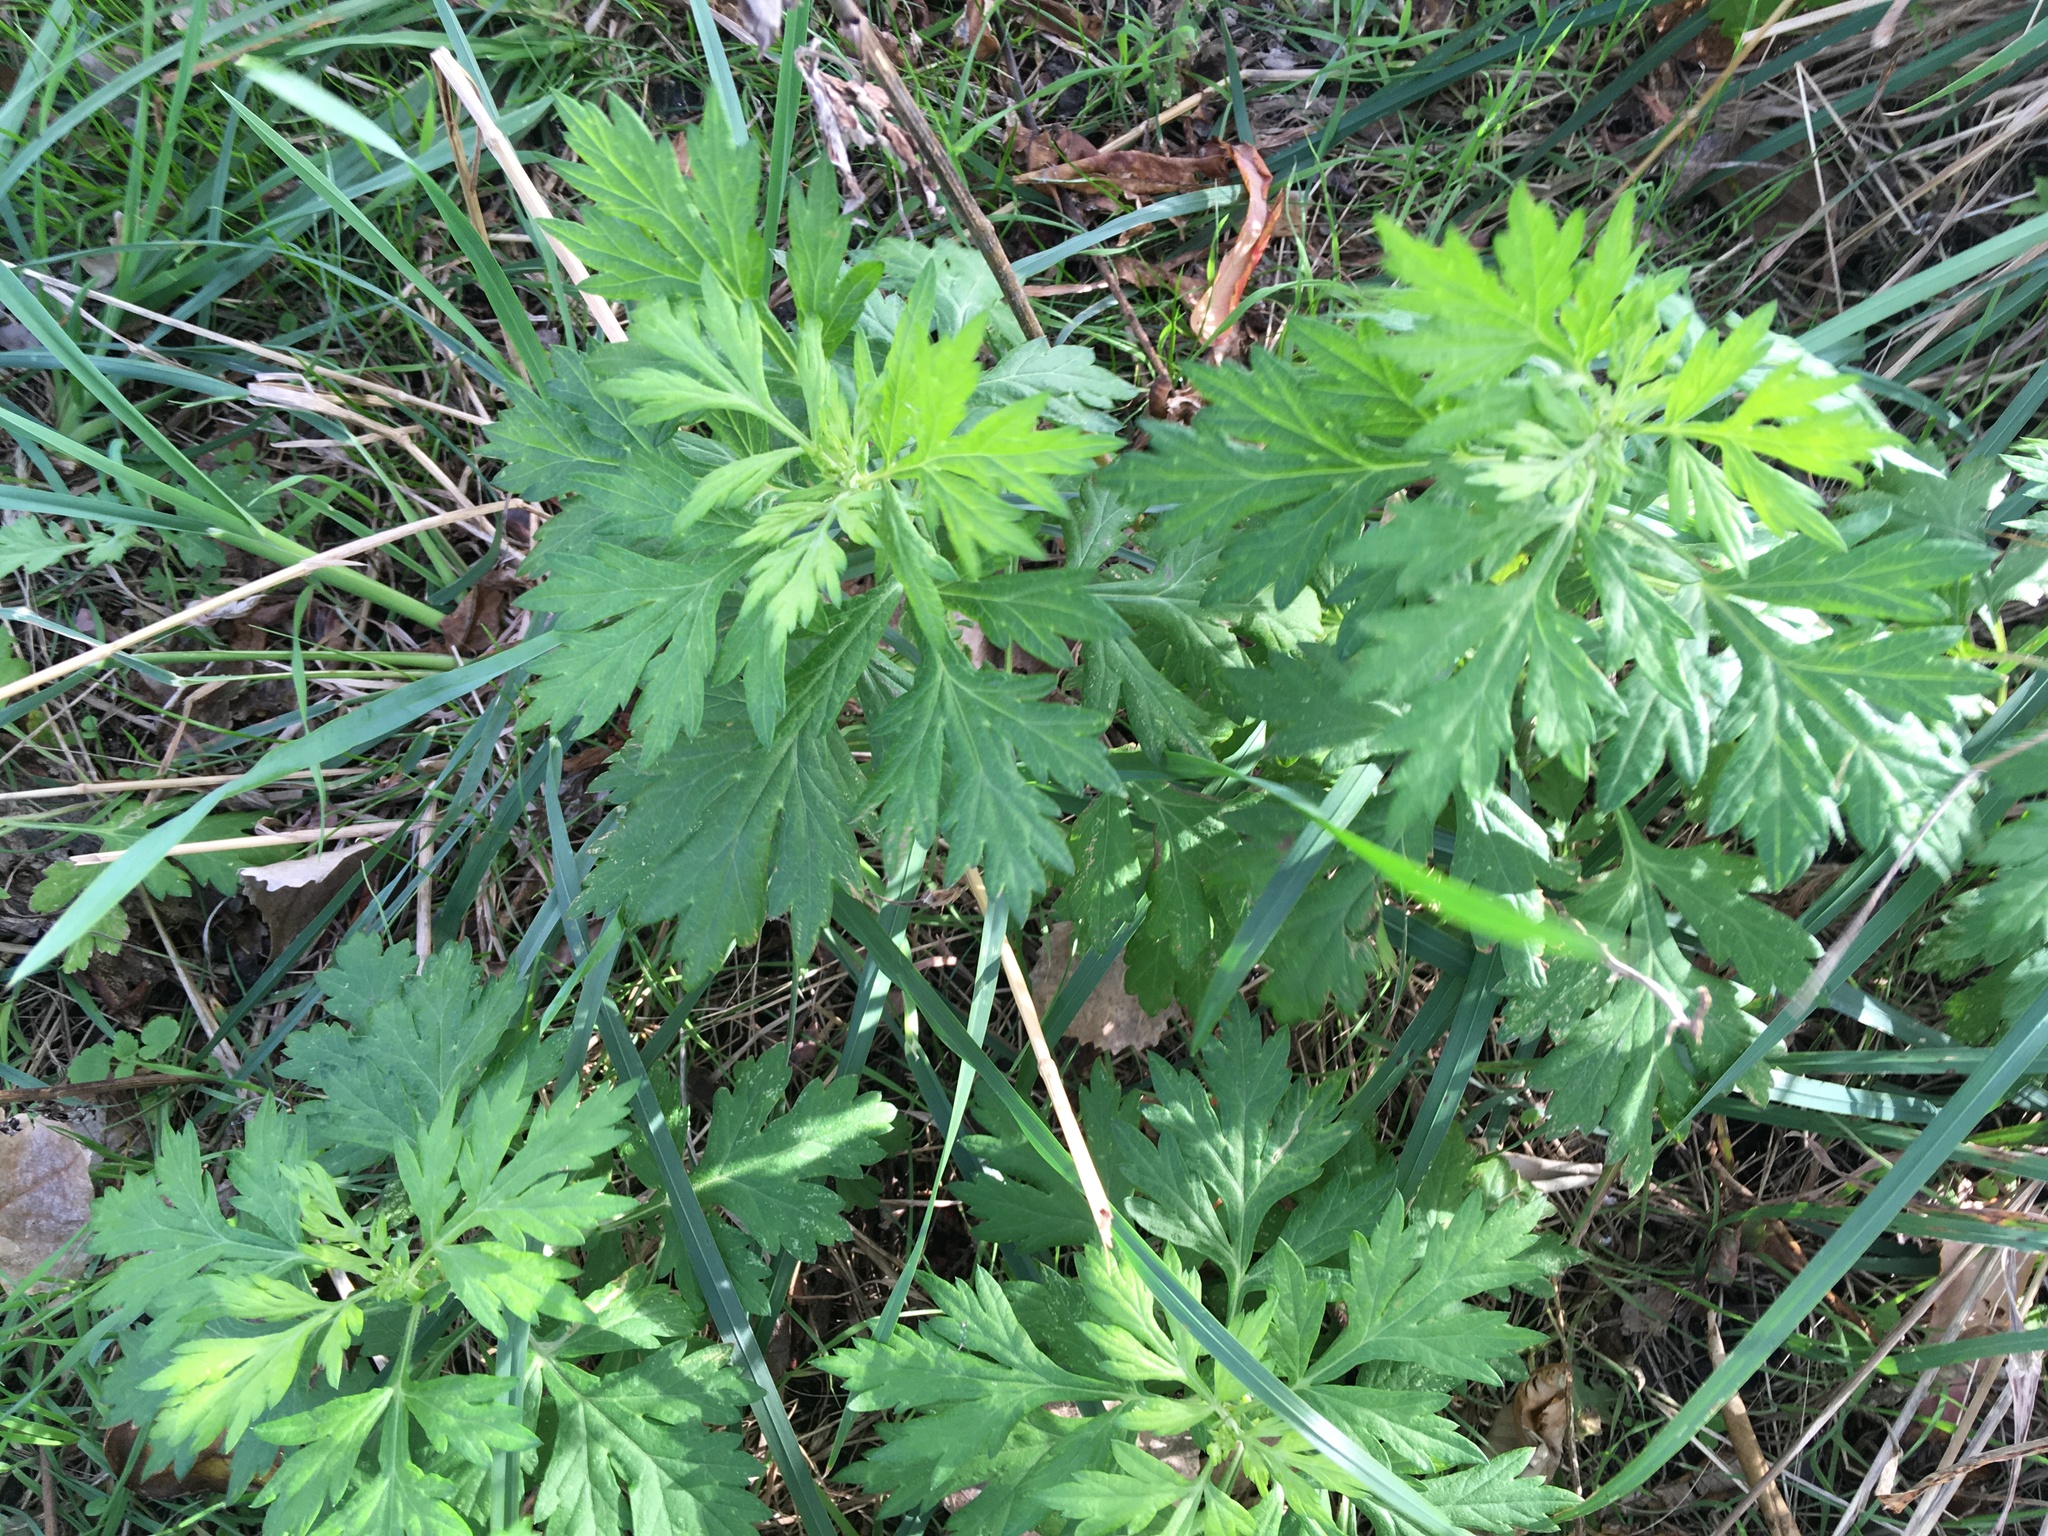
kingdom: Plantae
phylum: Tracheophyta
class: Magnoliopsida
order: Asterales
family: Asteraceae
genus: Artemisia
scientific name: Artemisia vulgaris
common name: Mugwort
